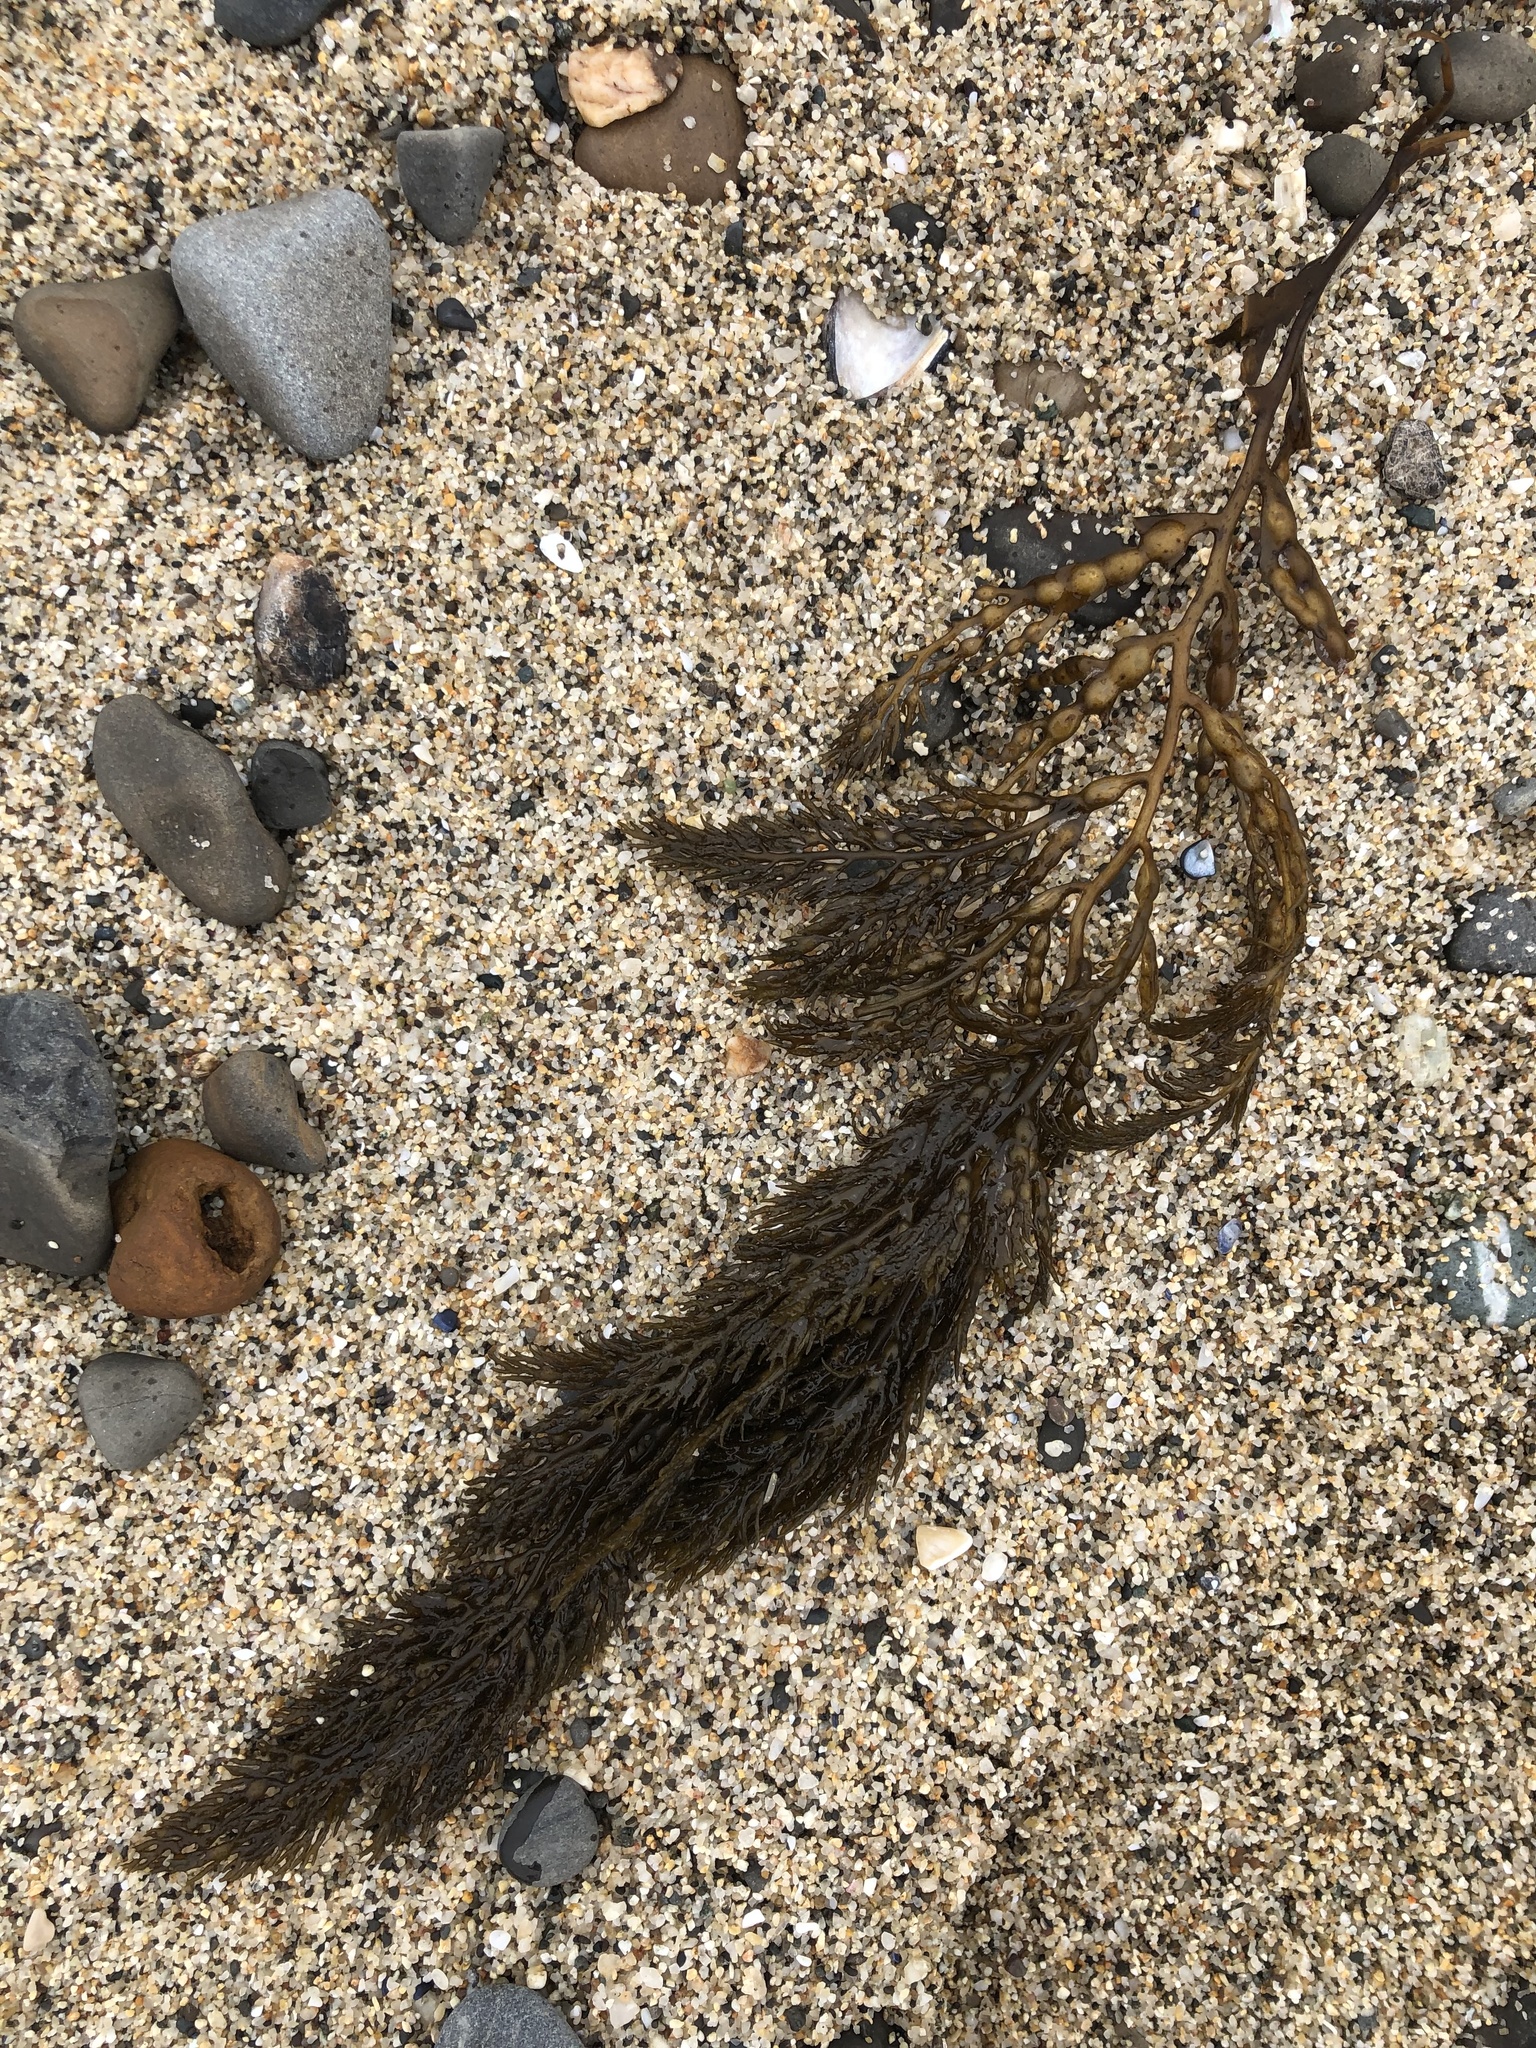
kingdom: Chromista
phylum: Ochrophyta
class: Phaeophyceae
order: Fucales
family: Sargassaceae
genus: Stephanocystis
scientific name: Stephanocystis
